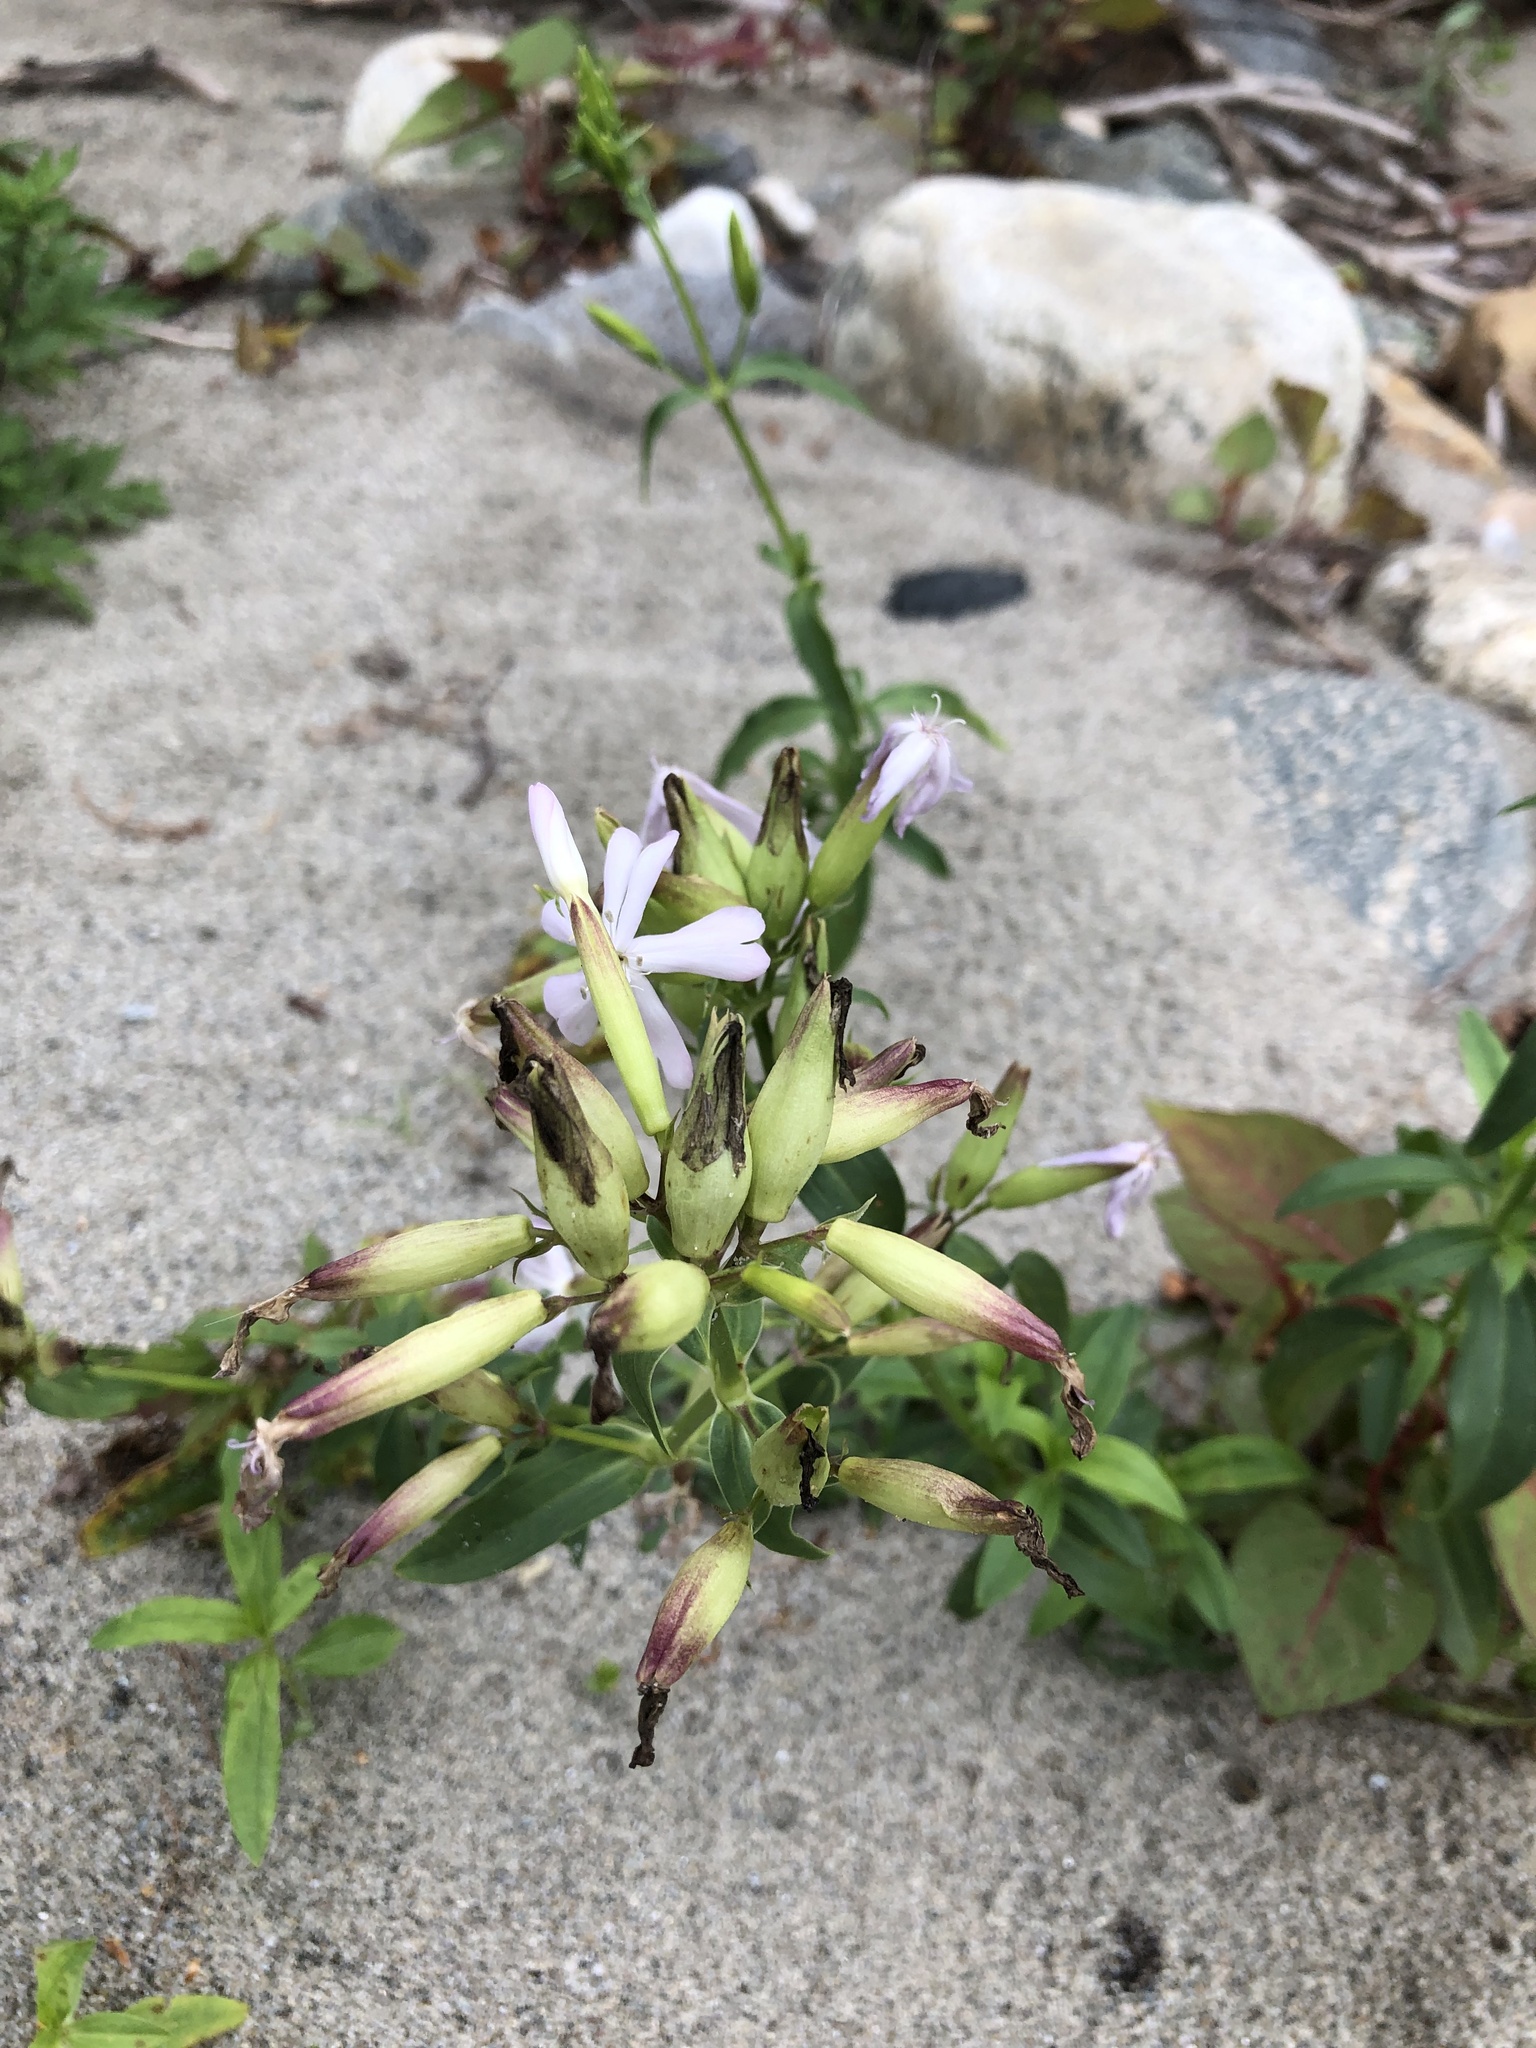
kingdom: Plantae
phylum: Tracheophyta
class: Magnoliopsida
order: Caryophyllales
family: Caryophyllaceae
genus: Saponaria
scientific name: Saponaria officinalis
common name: Soapwort
